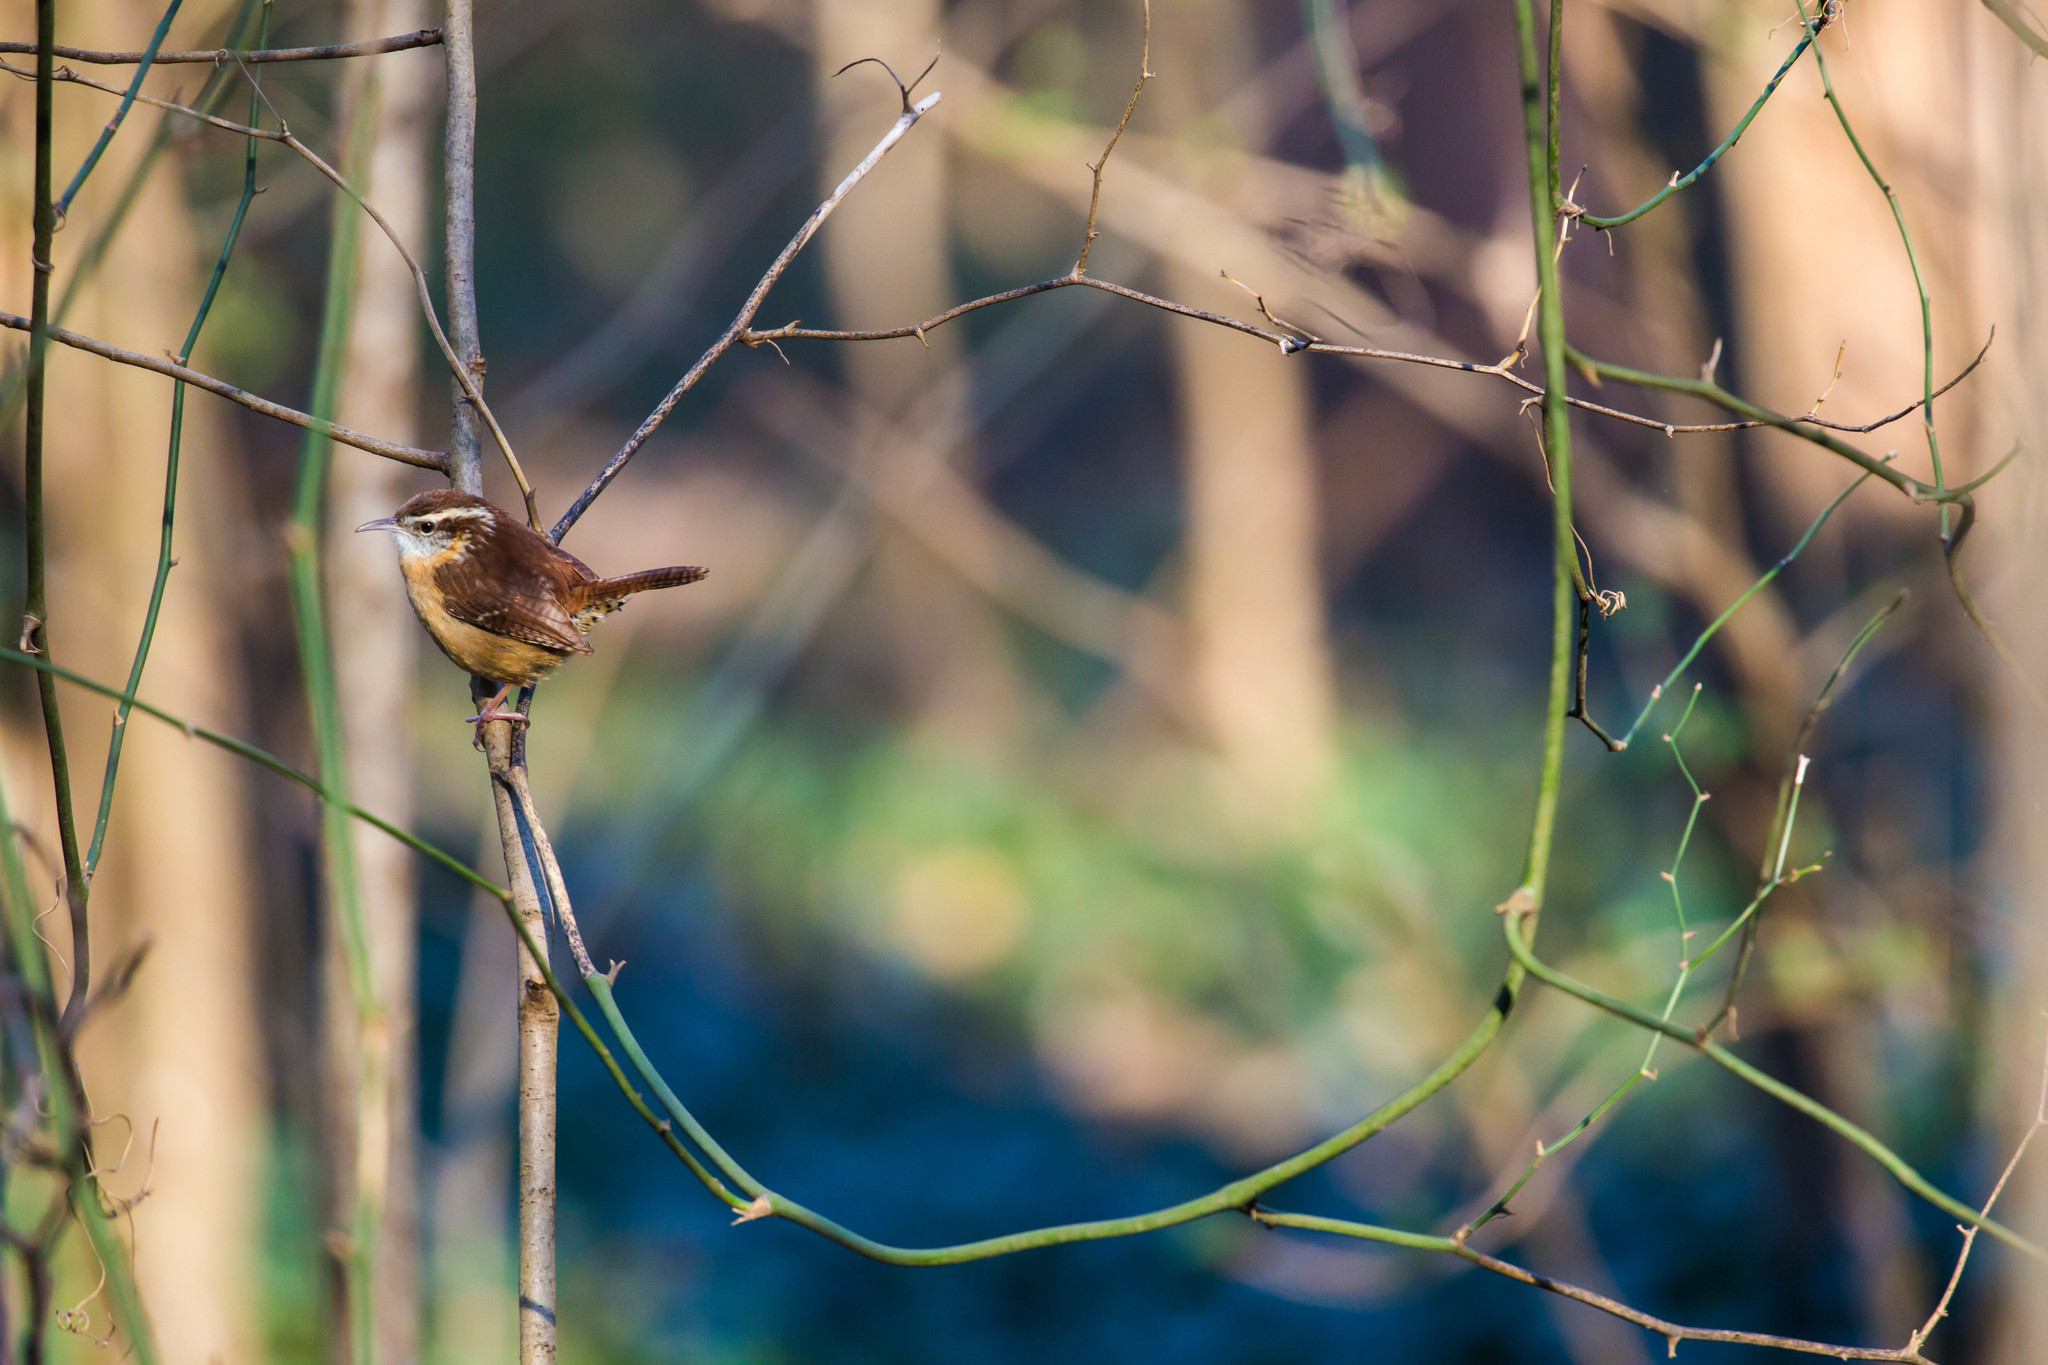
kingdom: Animalia
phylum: Chordata
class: Aves
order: Passeriformes
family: Troglodytidae
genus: Thryothorus
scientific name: Thryothorus ludovicianus
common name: Carolina wren
